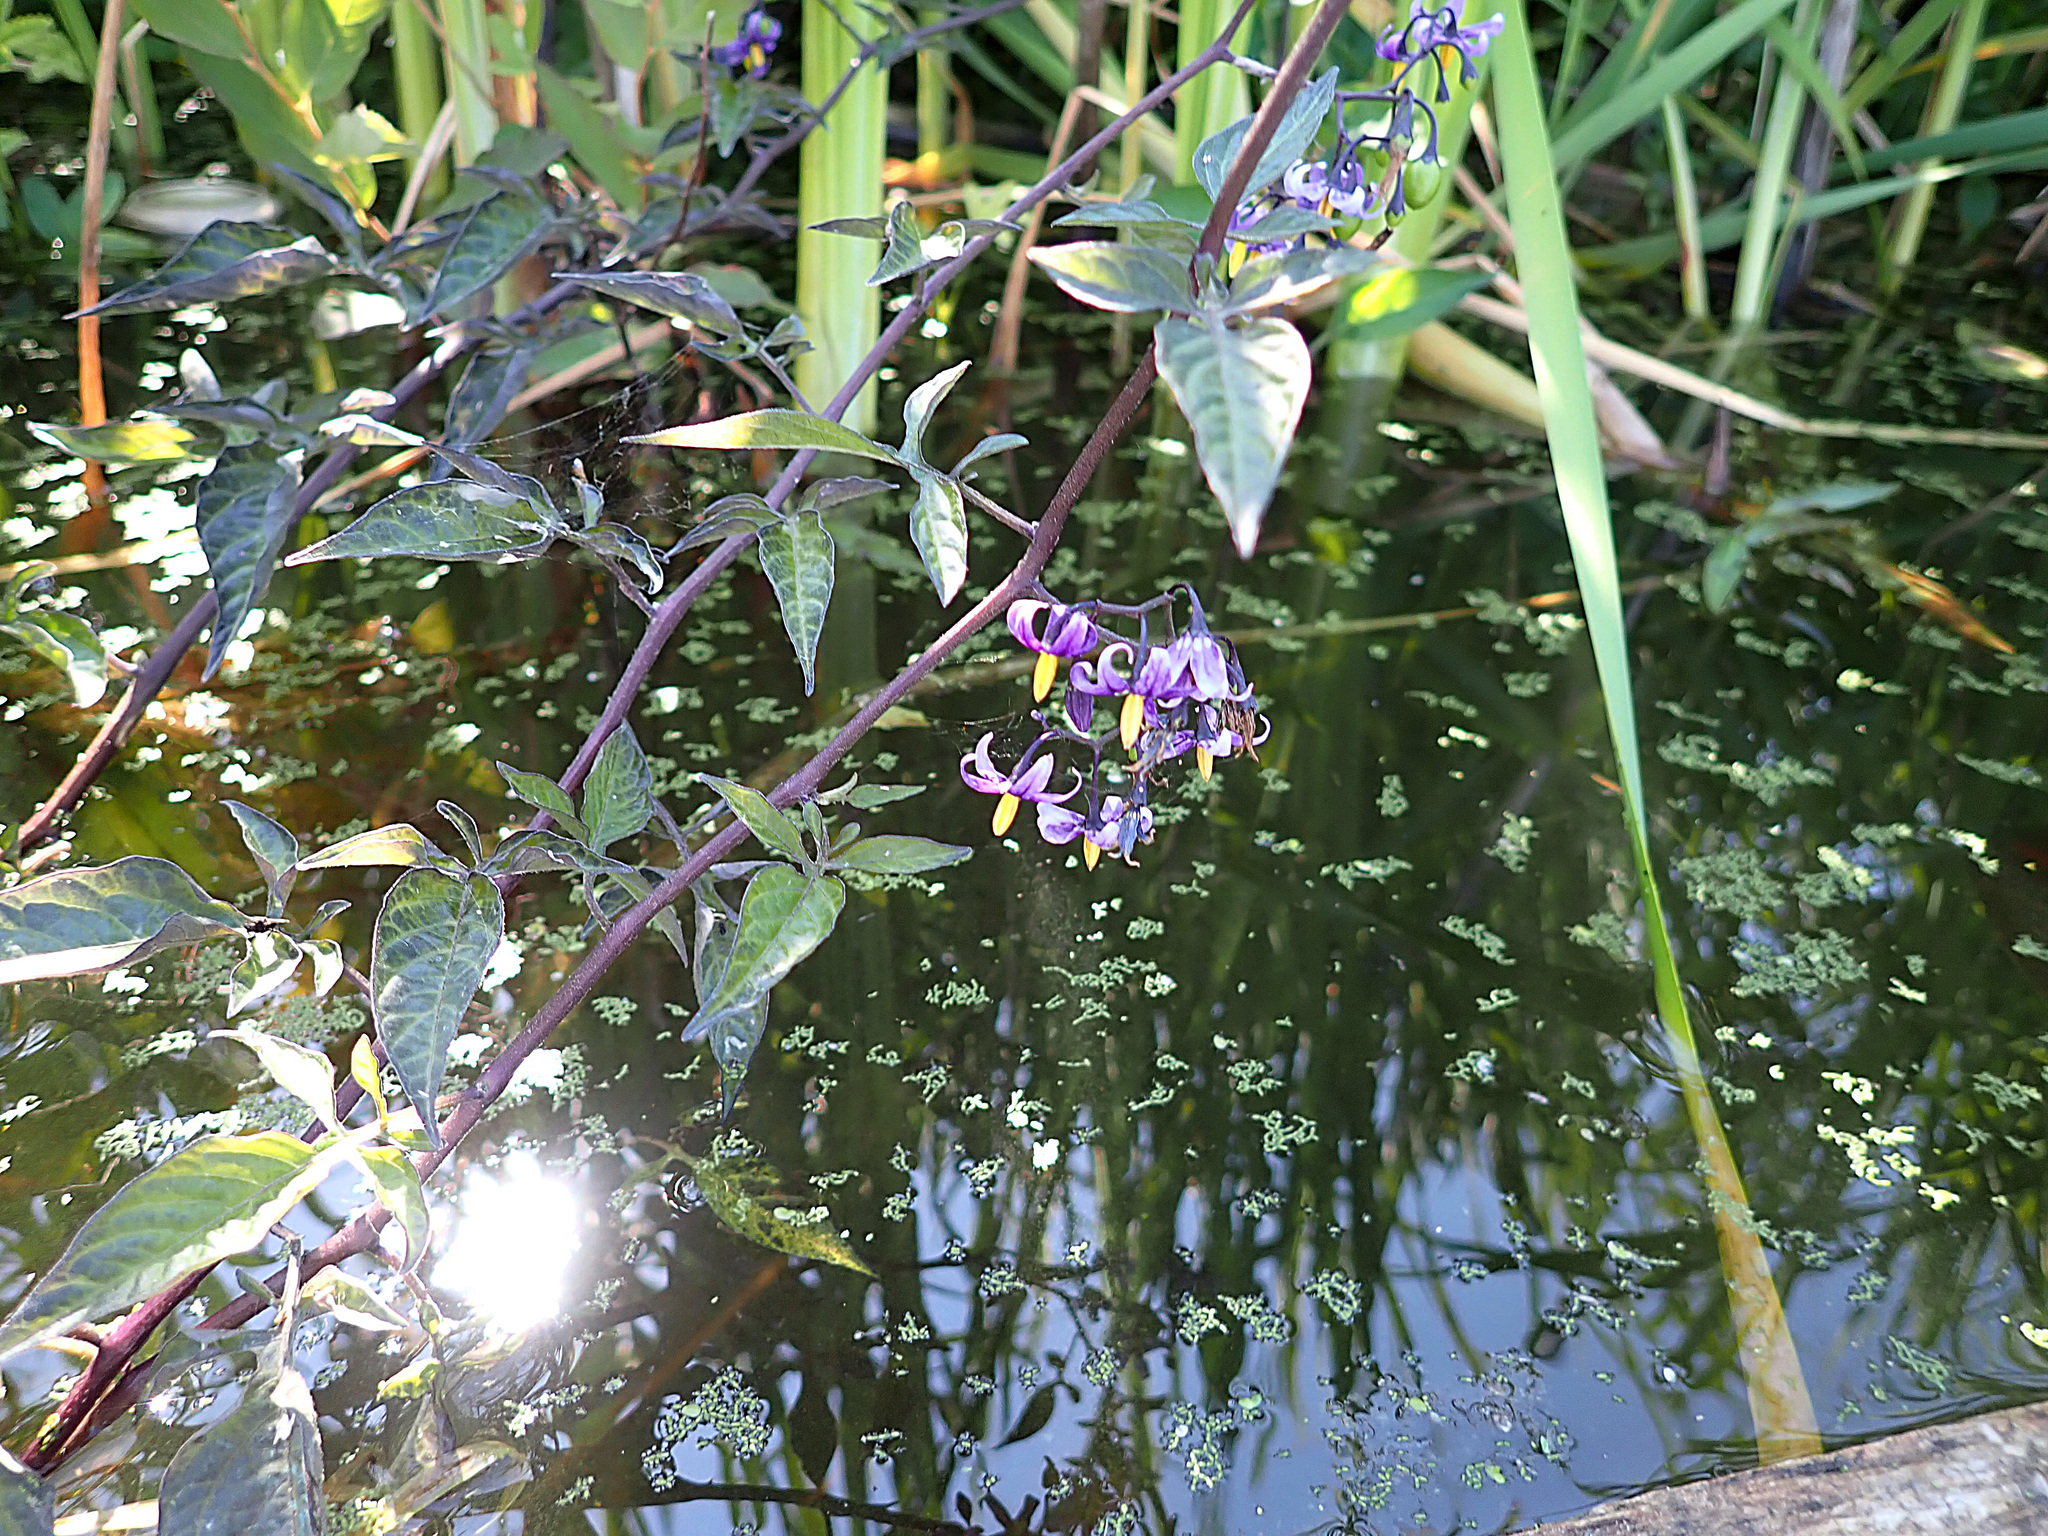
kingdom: Plantae
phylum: Tracheophyta
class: Magnoliopsida
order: Solanales
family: Solanaceae
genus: Solanum
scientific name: Solanum dulcamara
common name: Climbing nightshade
